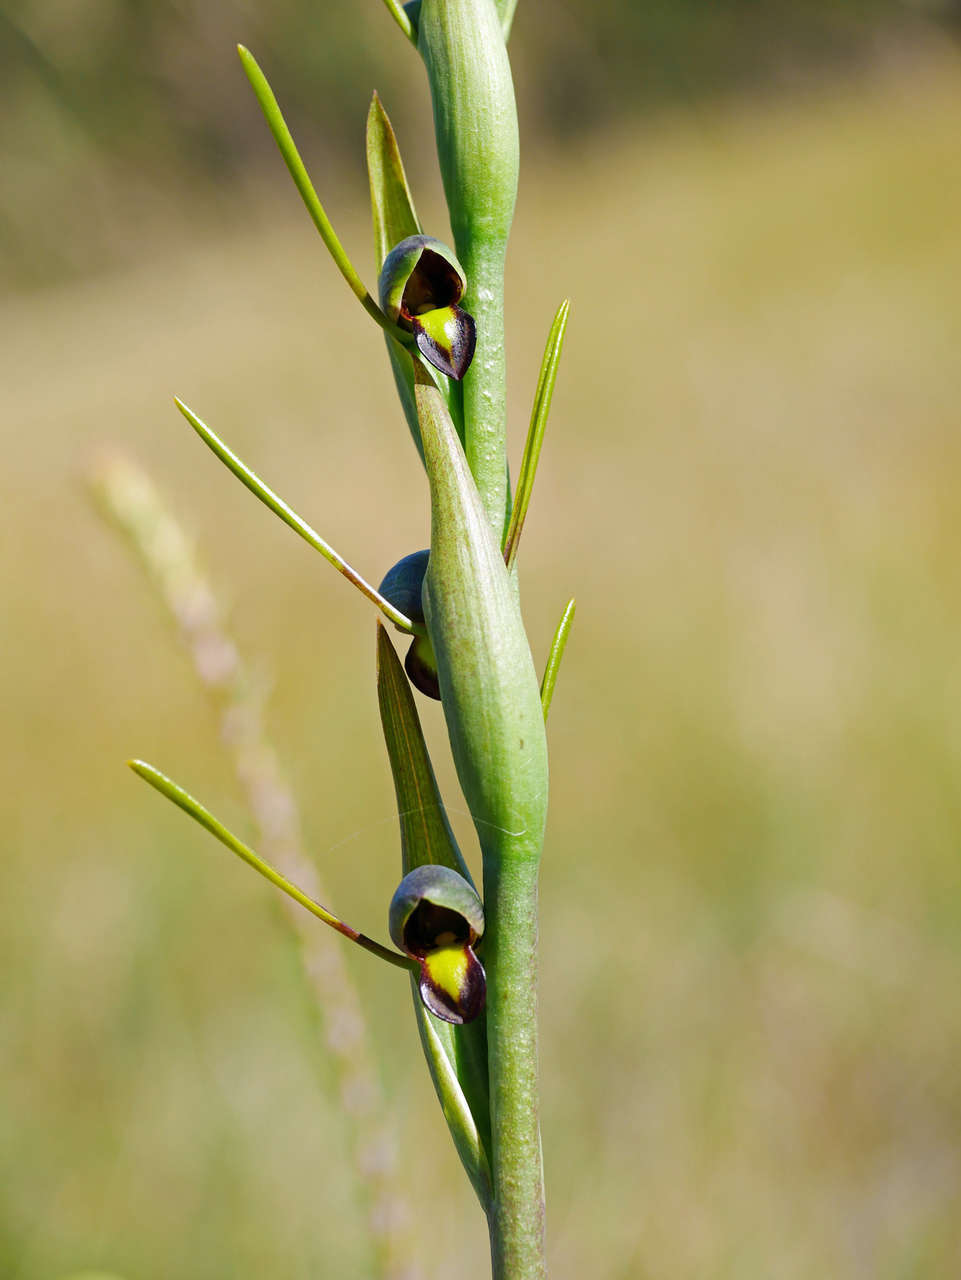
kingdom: Plantae
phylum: Tracheophyta
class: Liliopsida
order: Asparagales
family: Orchidaceae
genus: Orthoceras
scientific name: Orthoceras strictum
